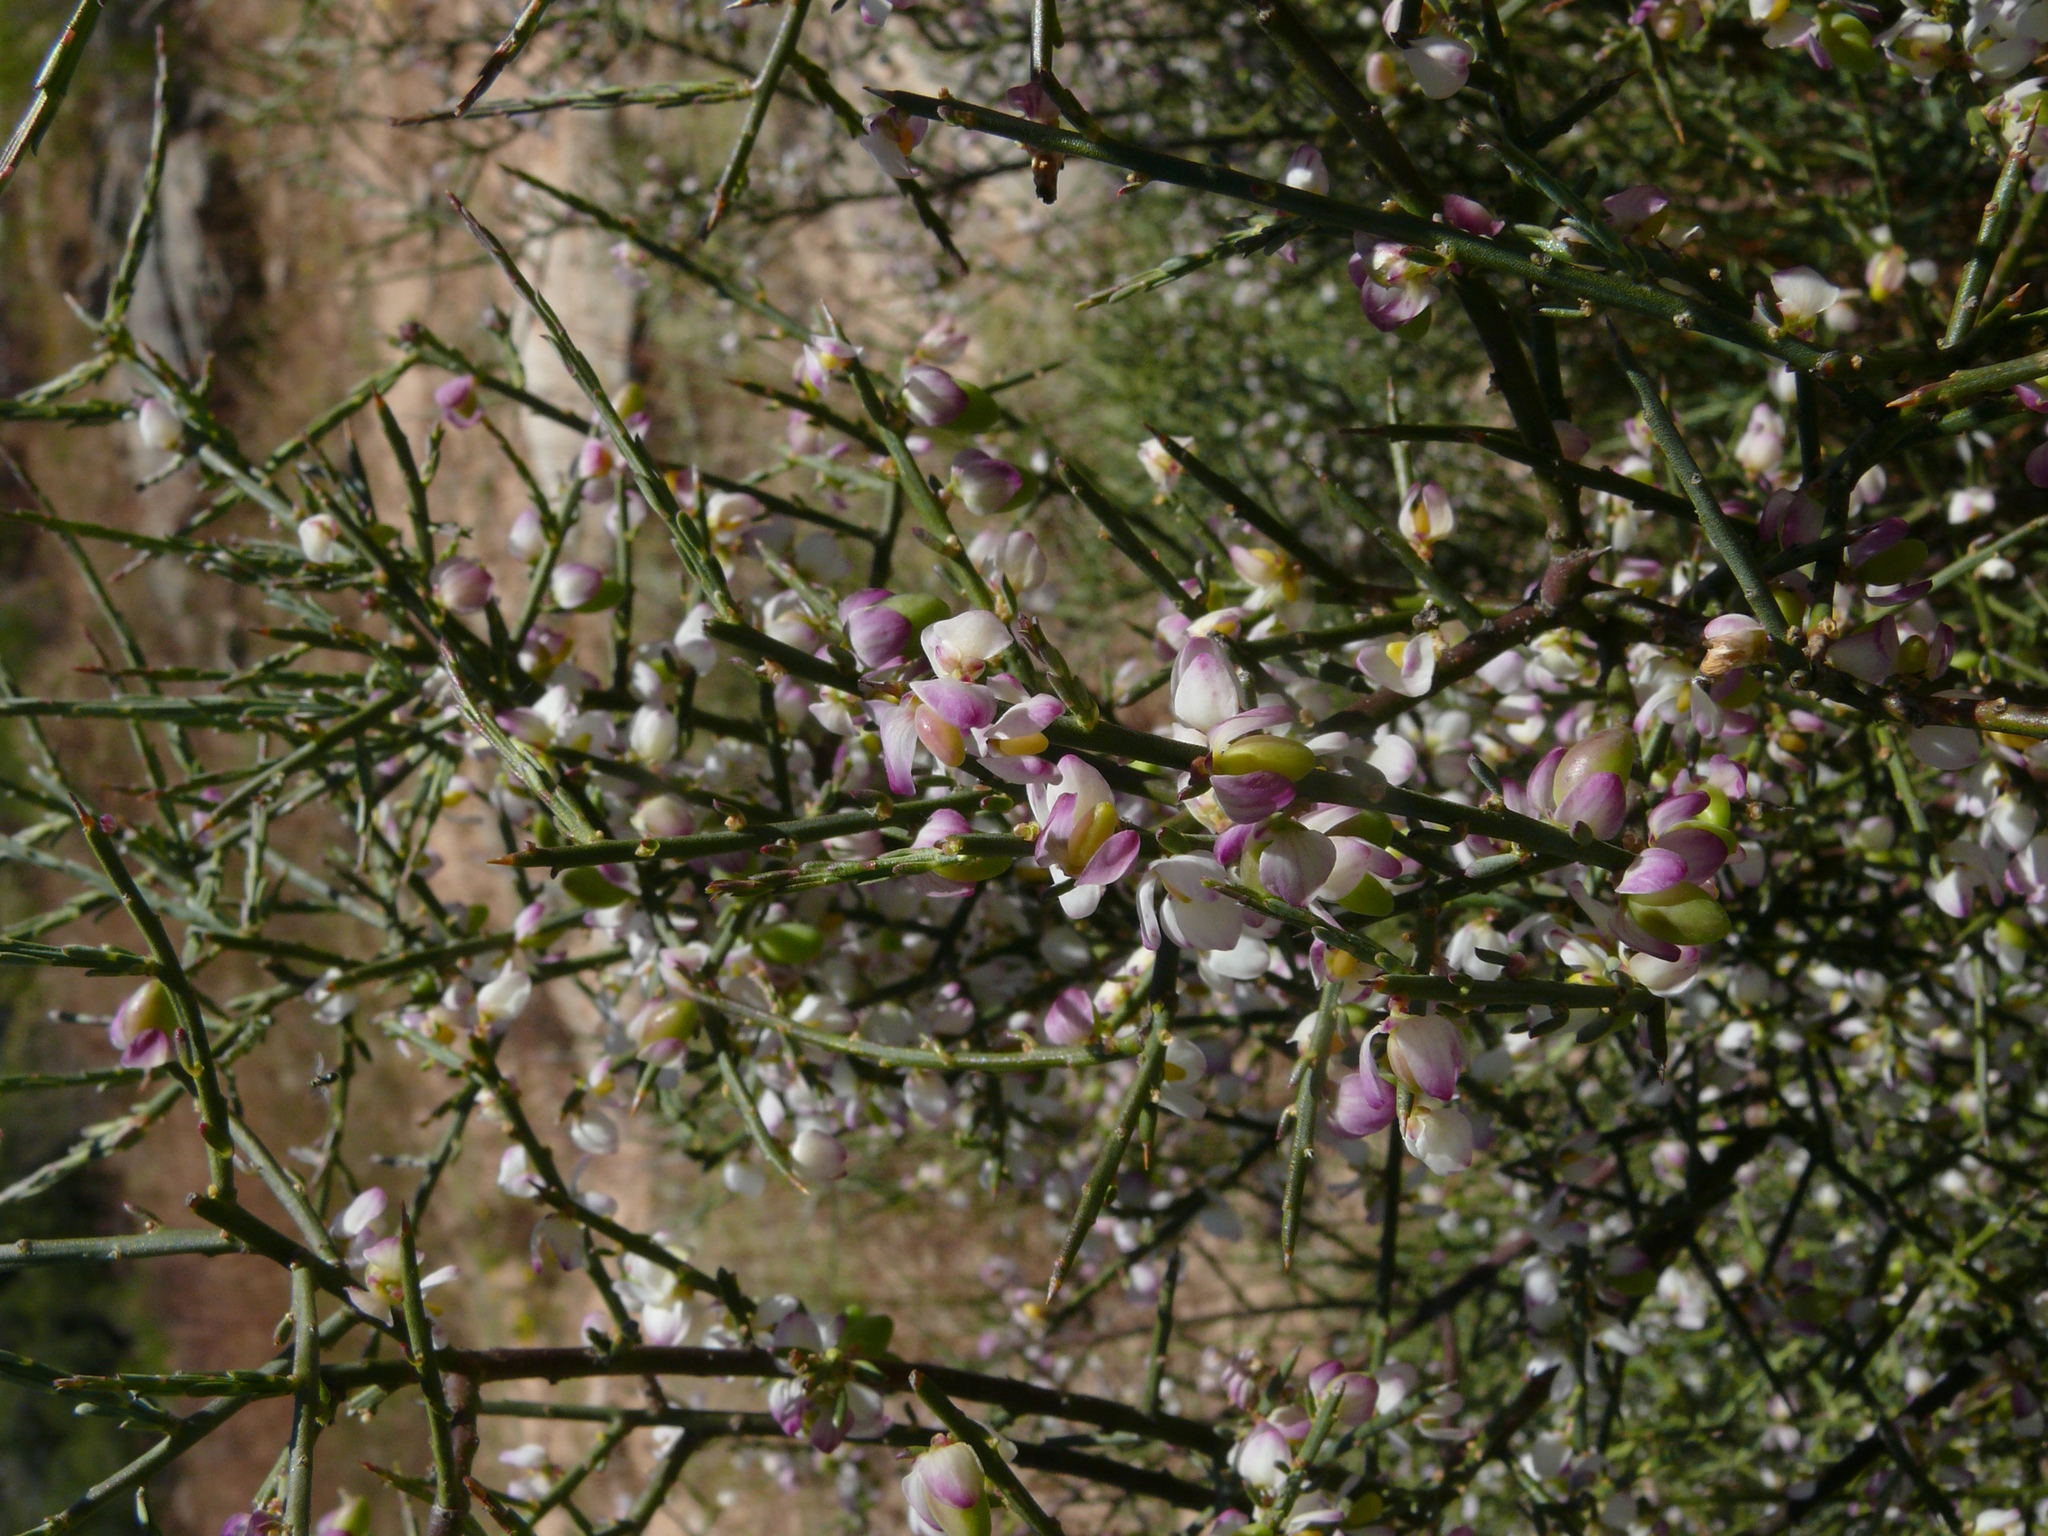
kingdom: Plantae
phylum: Tracheophyta
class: Magnoliopsida
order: Fabales
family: Polygalaceae
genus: Muraltia
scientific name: Muraltia spinosa
